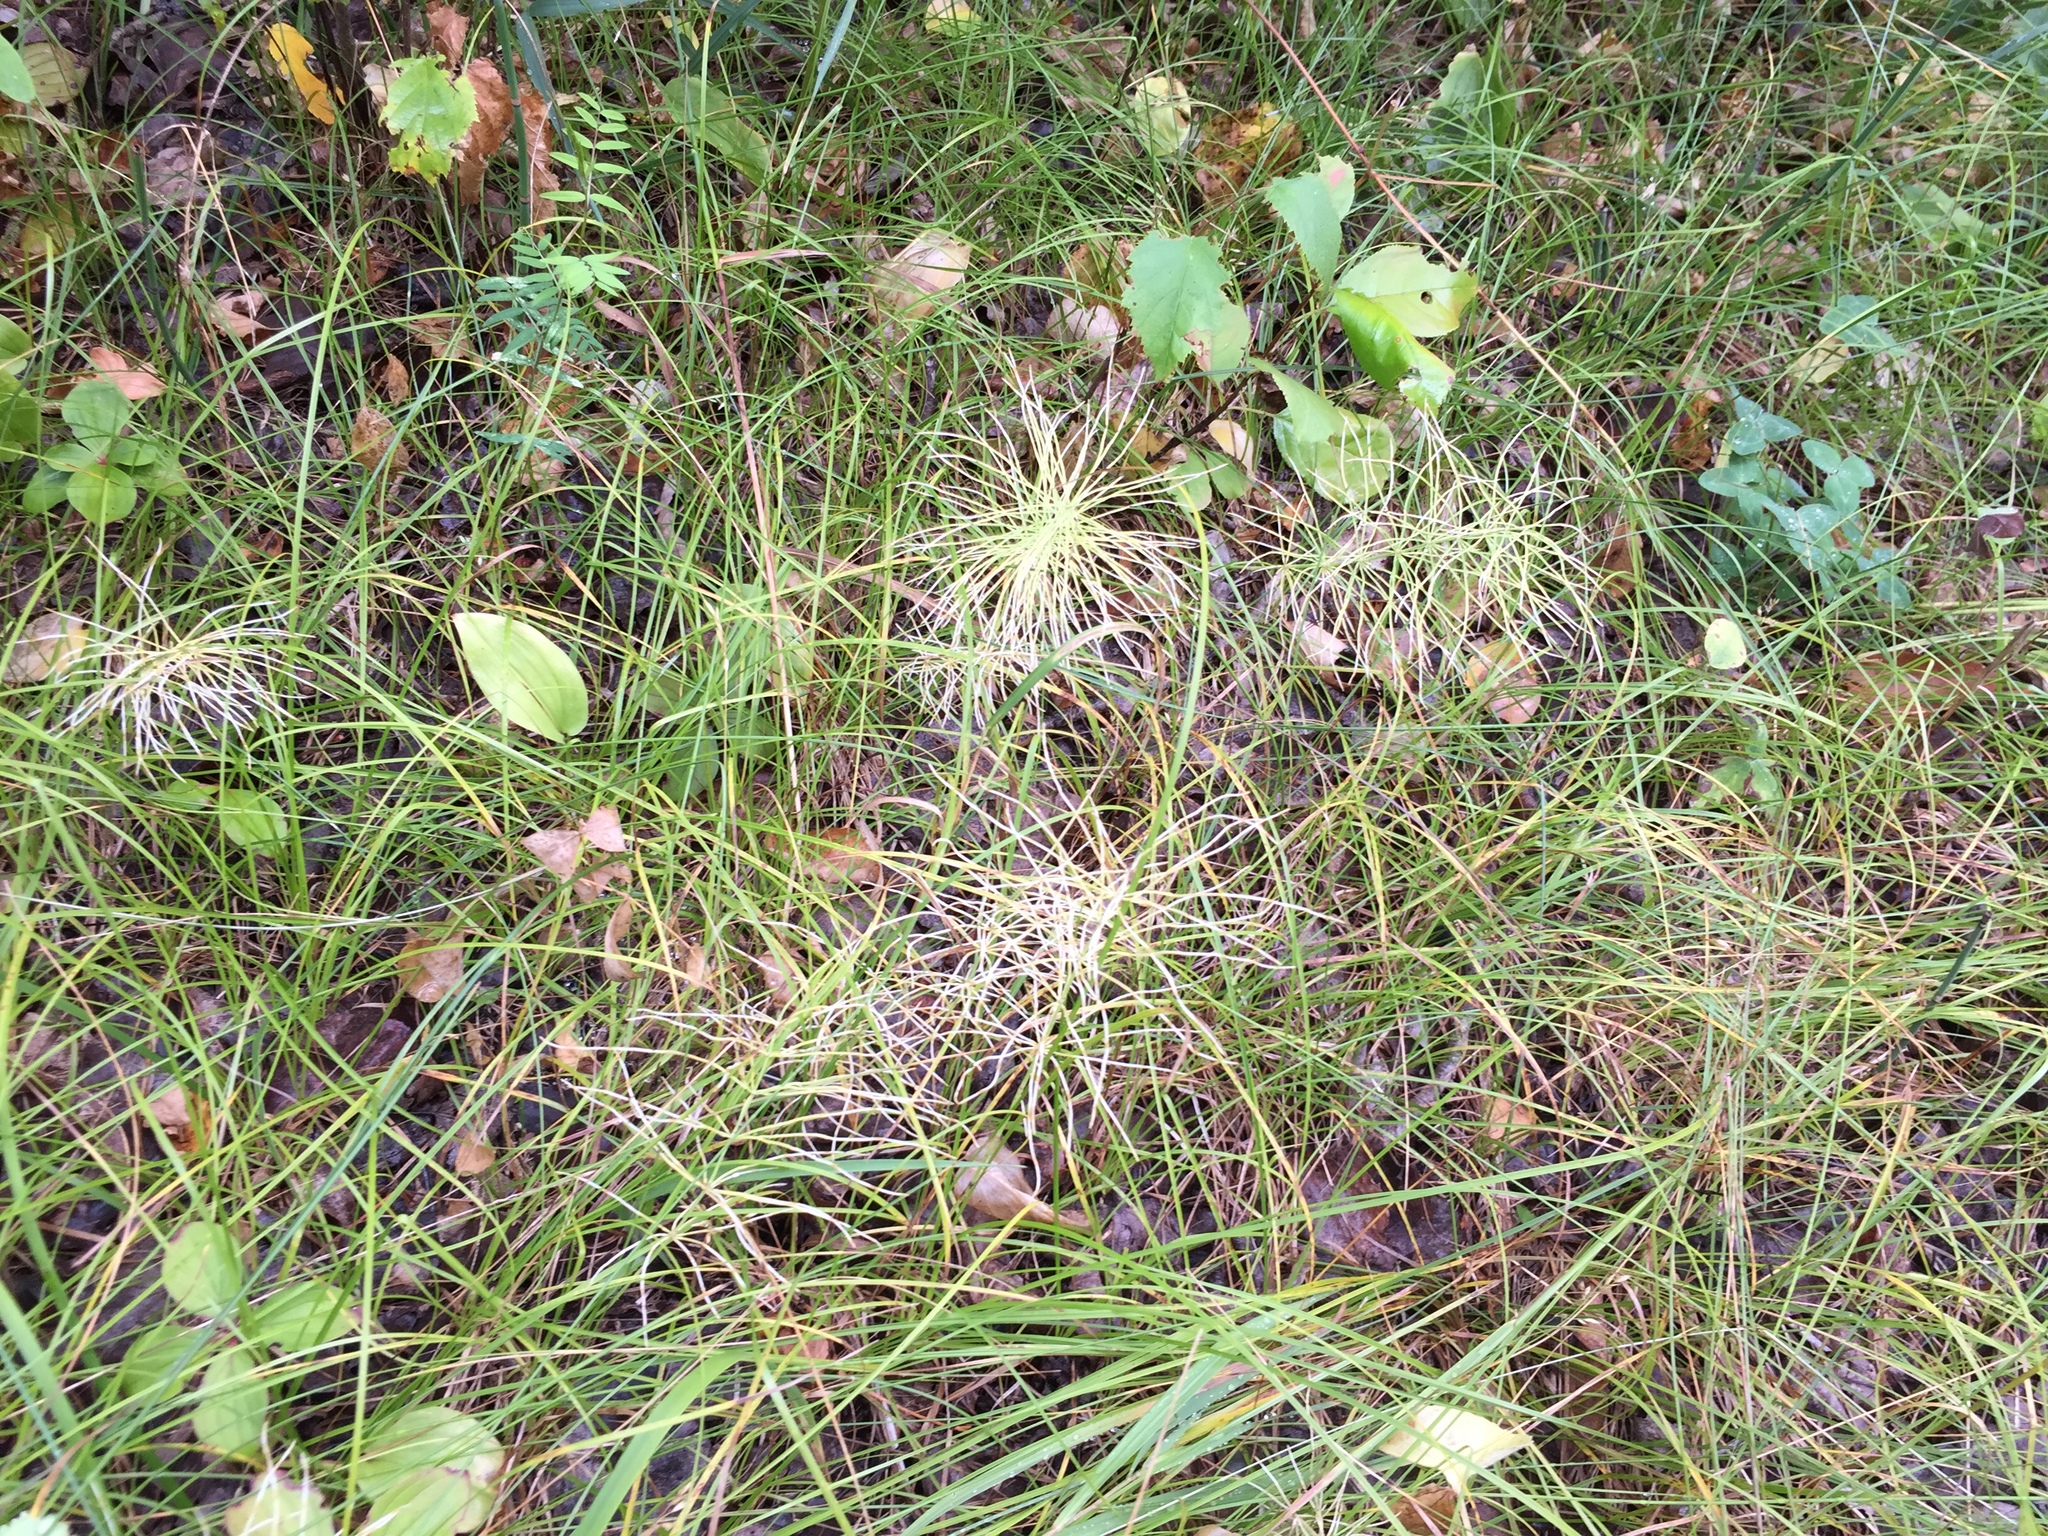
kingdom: Plantae
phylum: Tracheophyta
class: Polypodiopsida
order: Equisetales
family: Equisetaceae
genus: Equisetum
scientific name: Equisetum arvense
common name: Field horsetail
